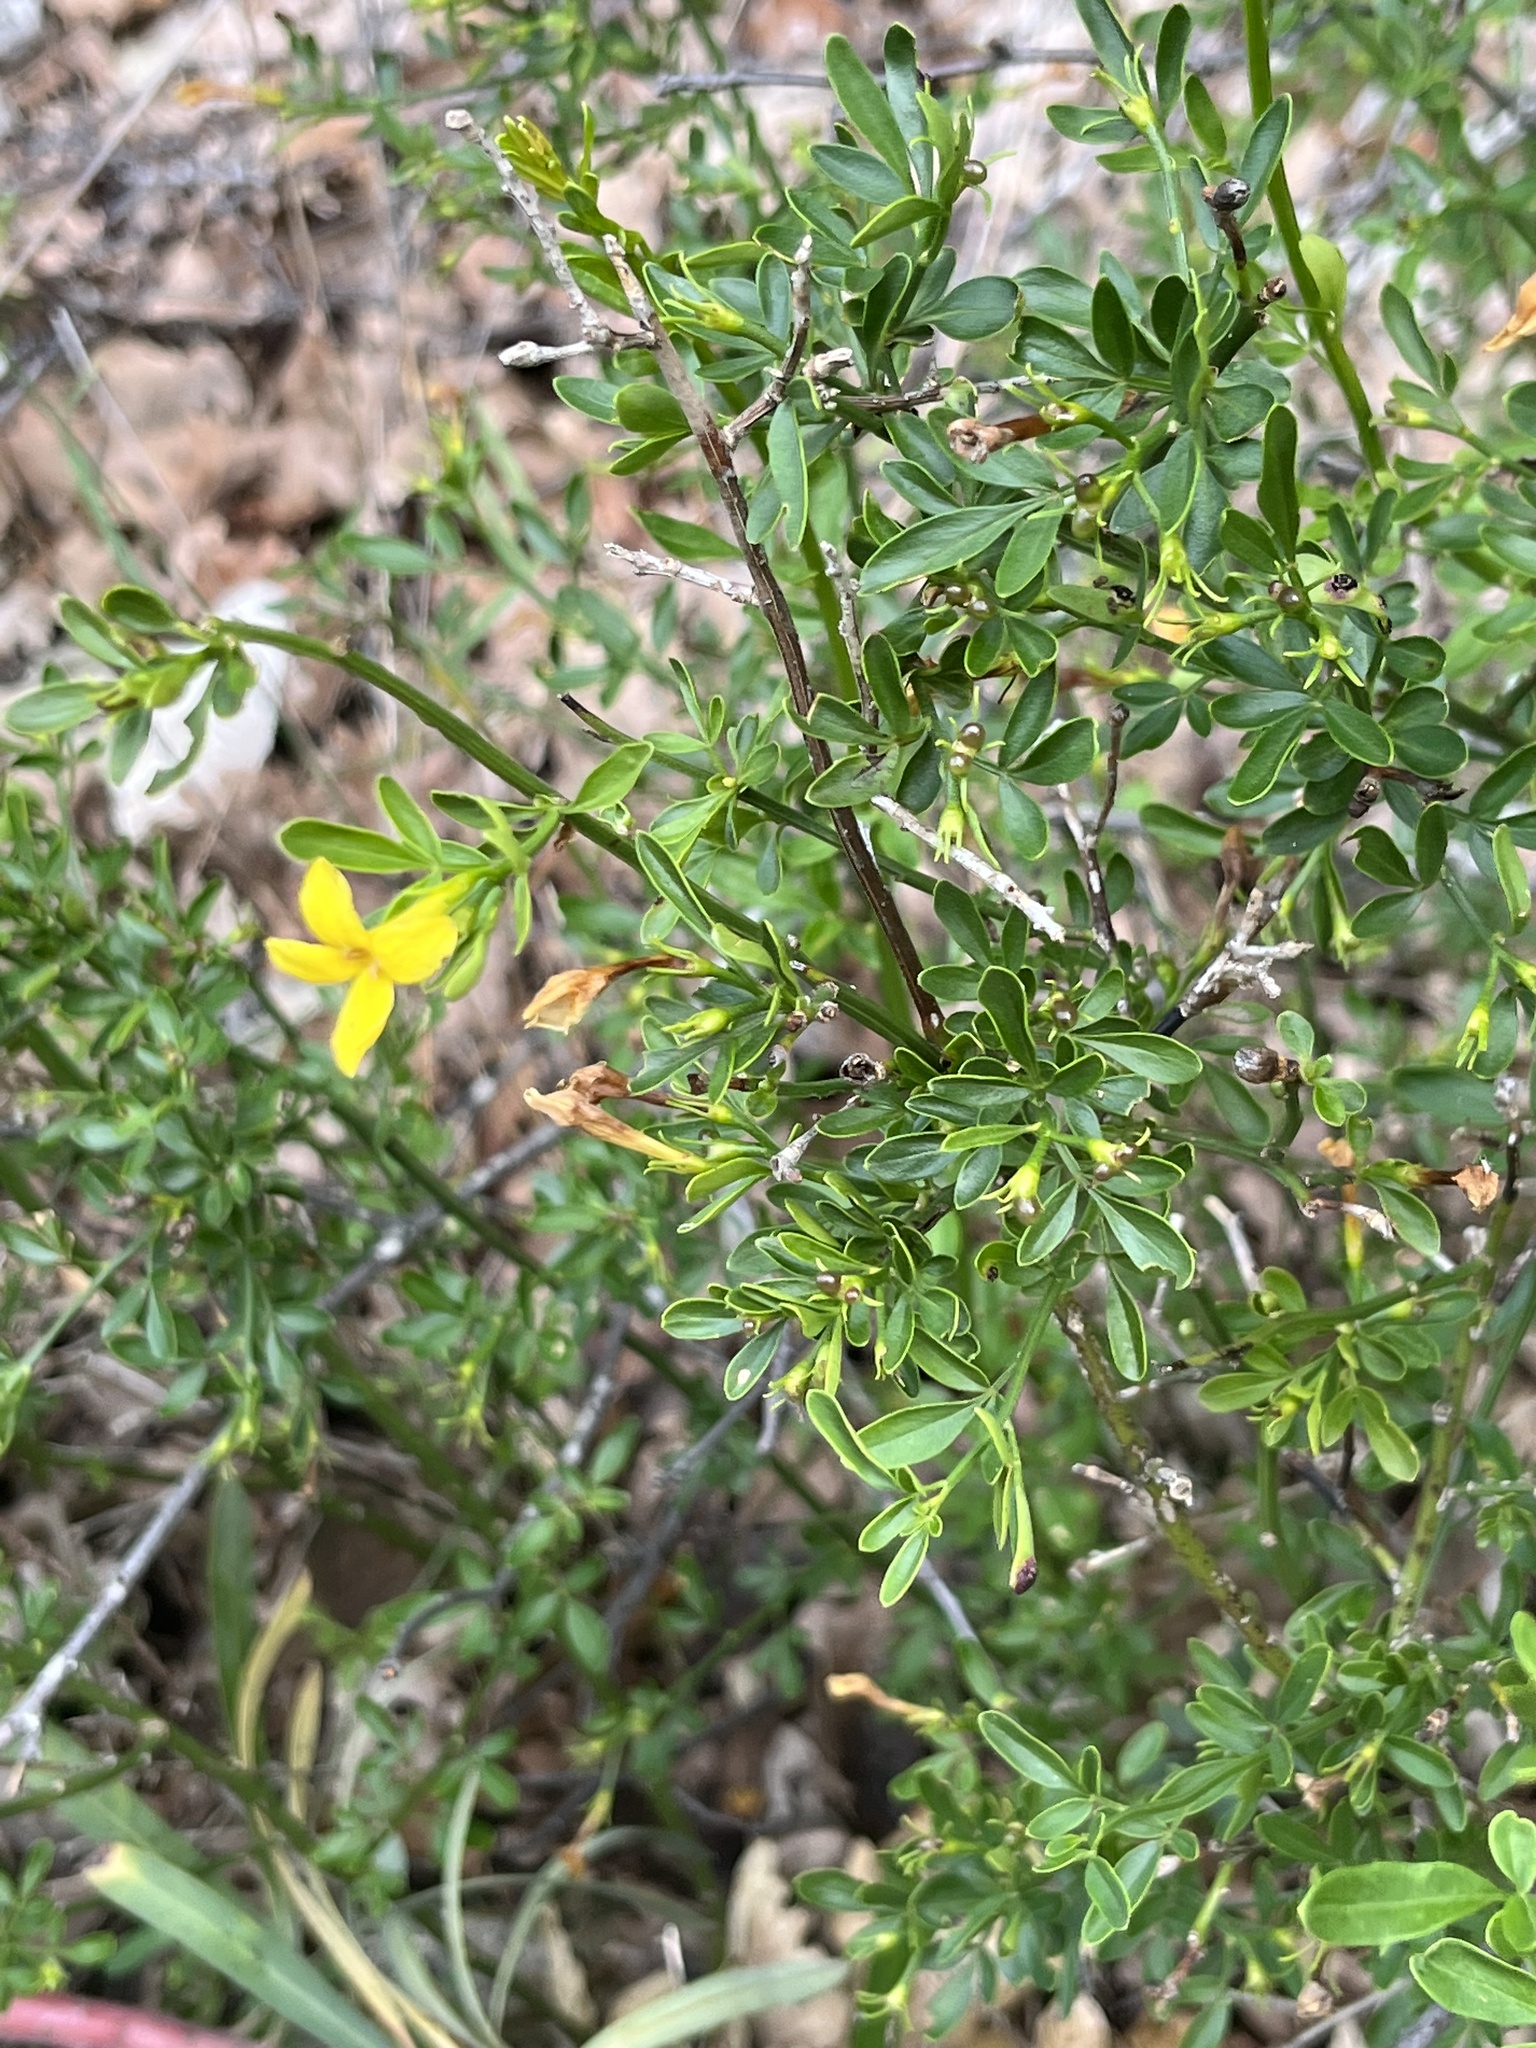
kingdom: Plantae
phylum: Tracheophyta
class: Magnoliopsida
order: Lamiales
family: Oleaceae
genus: Chrysojasminum
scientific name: Chrysojasminum fruticans
